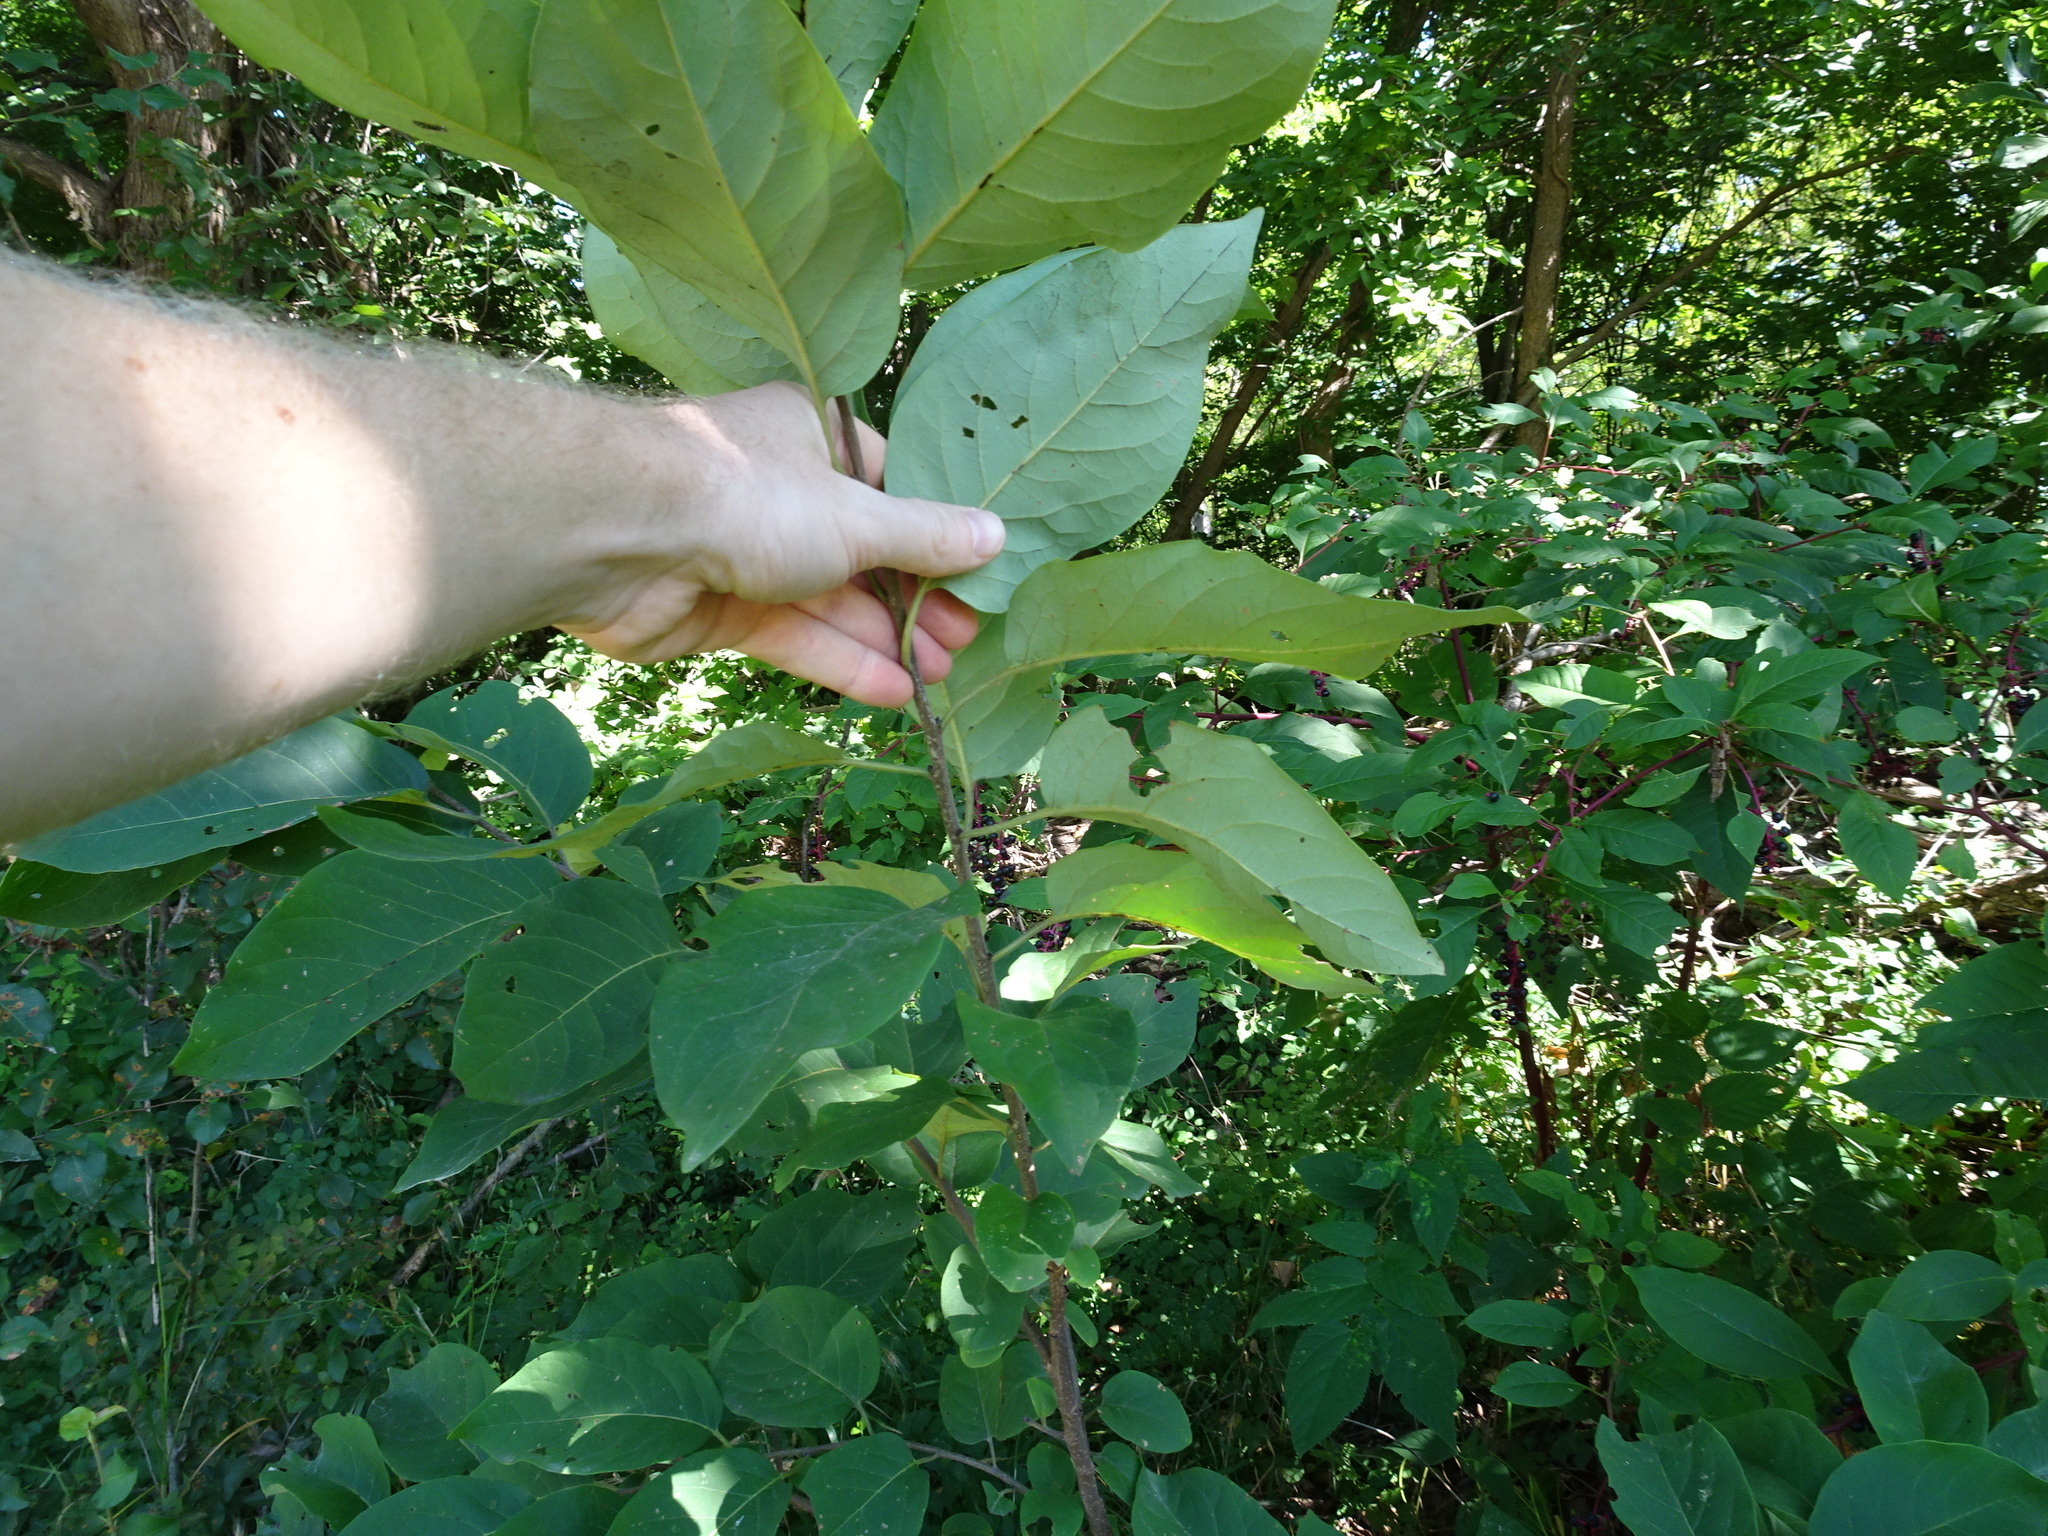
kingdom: Plantae
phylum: Tracheophyta
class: Magnoliopsida
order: Ericales
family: Ebenaceae
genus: Diospyros
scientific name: Diospyros virginiana
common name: Persimmon
